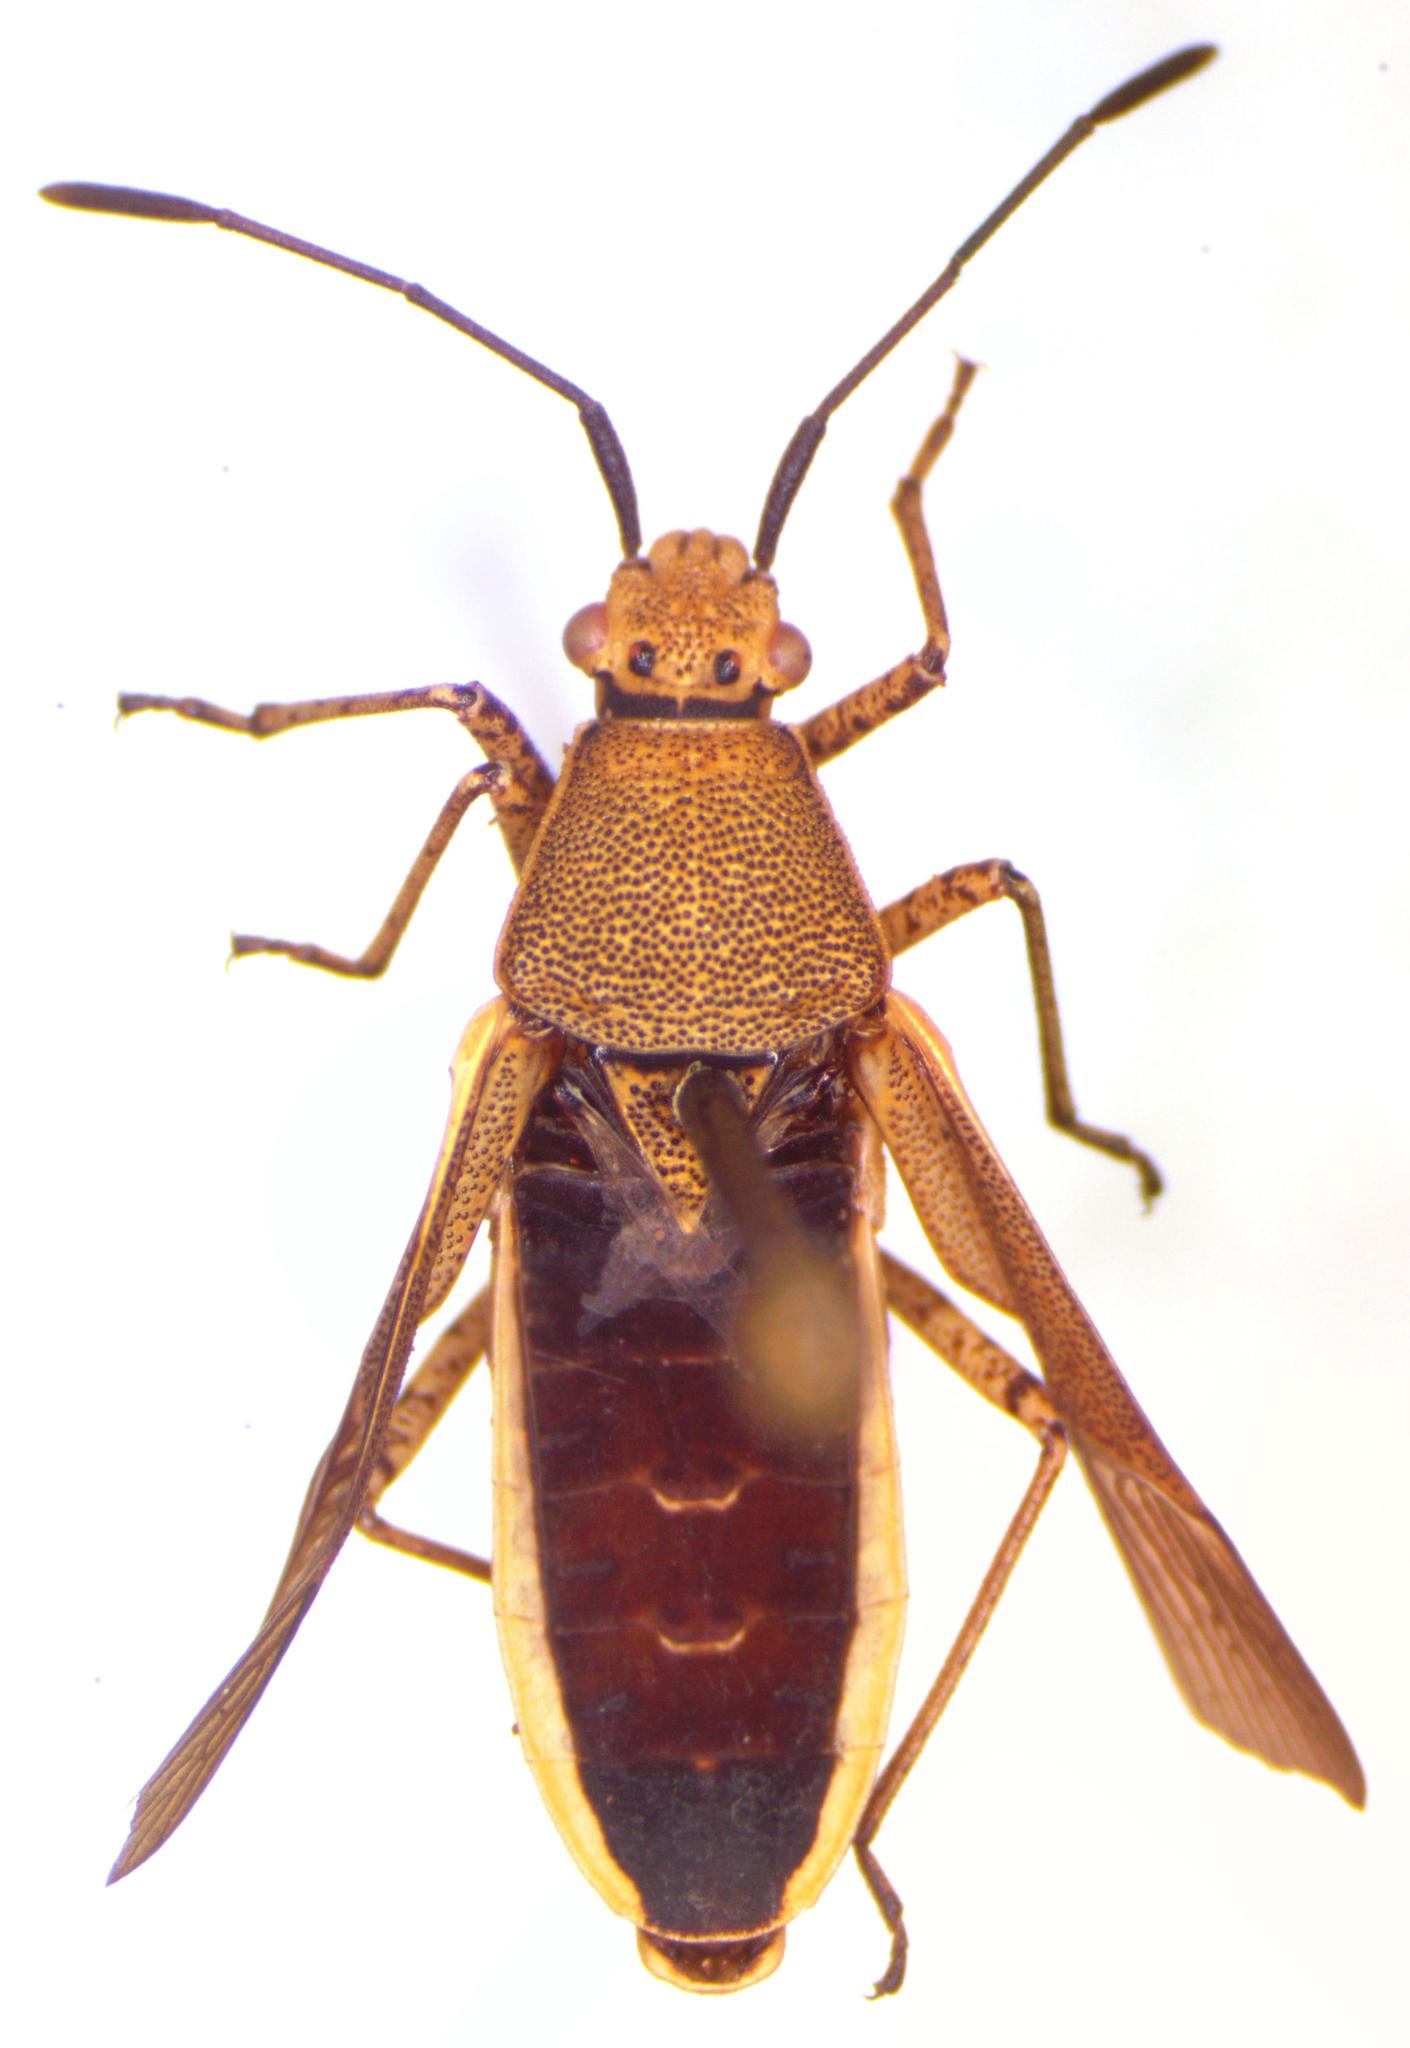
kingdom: Animalia
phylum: Arthropoda
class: Insecta
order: Hemiptera
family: Coreidae
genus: Catorhintha
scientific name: Catorhintha selector
